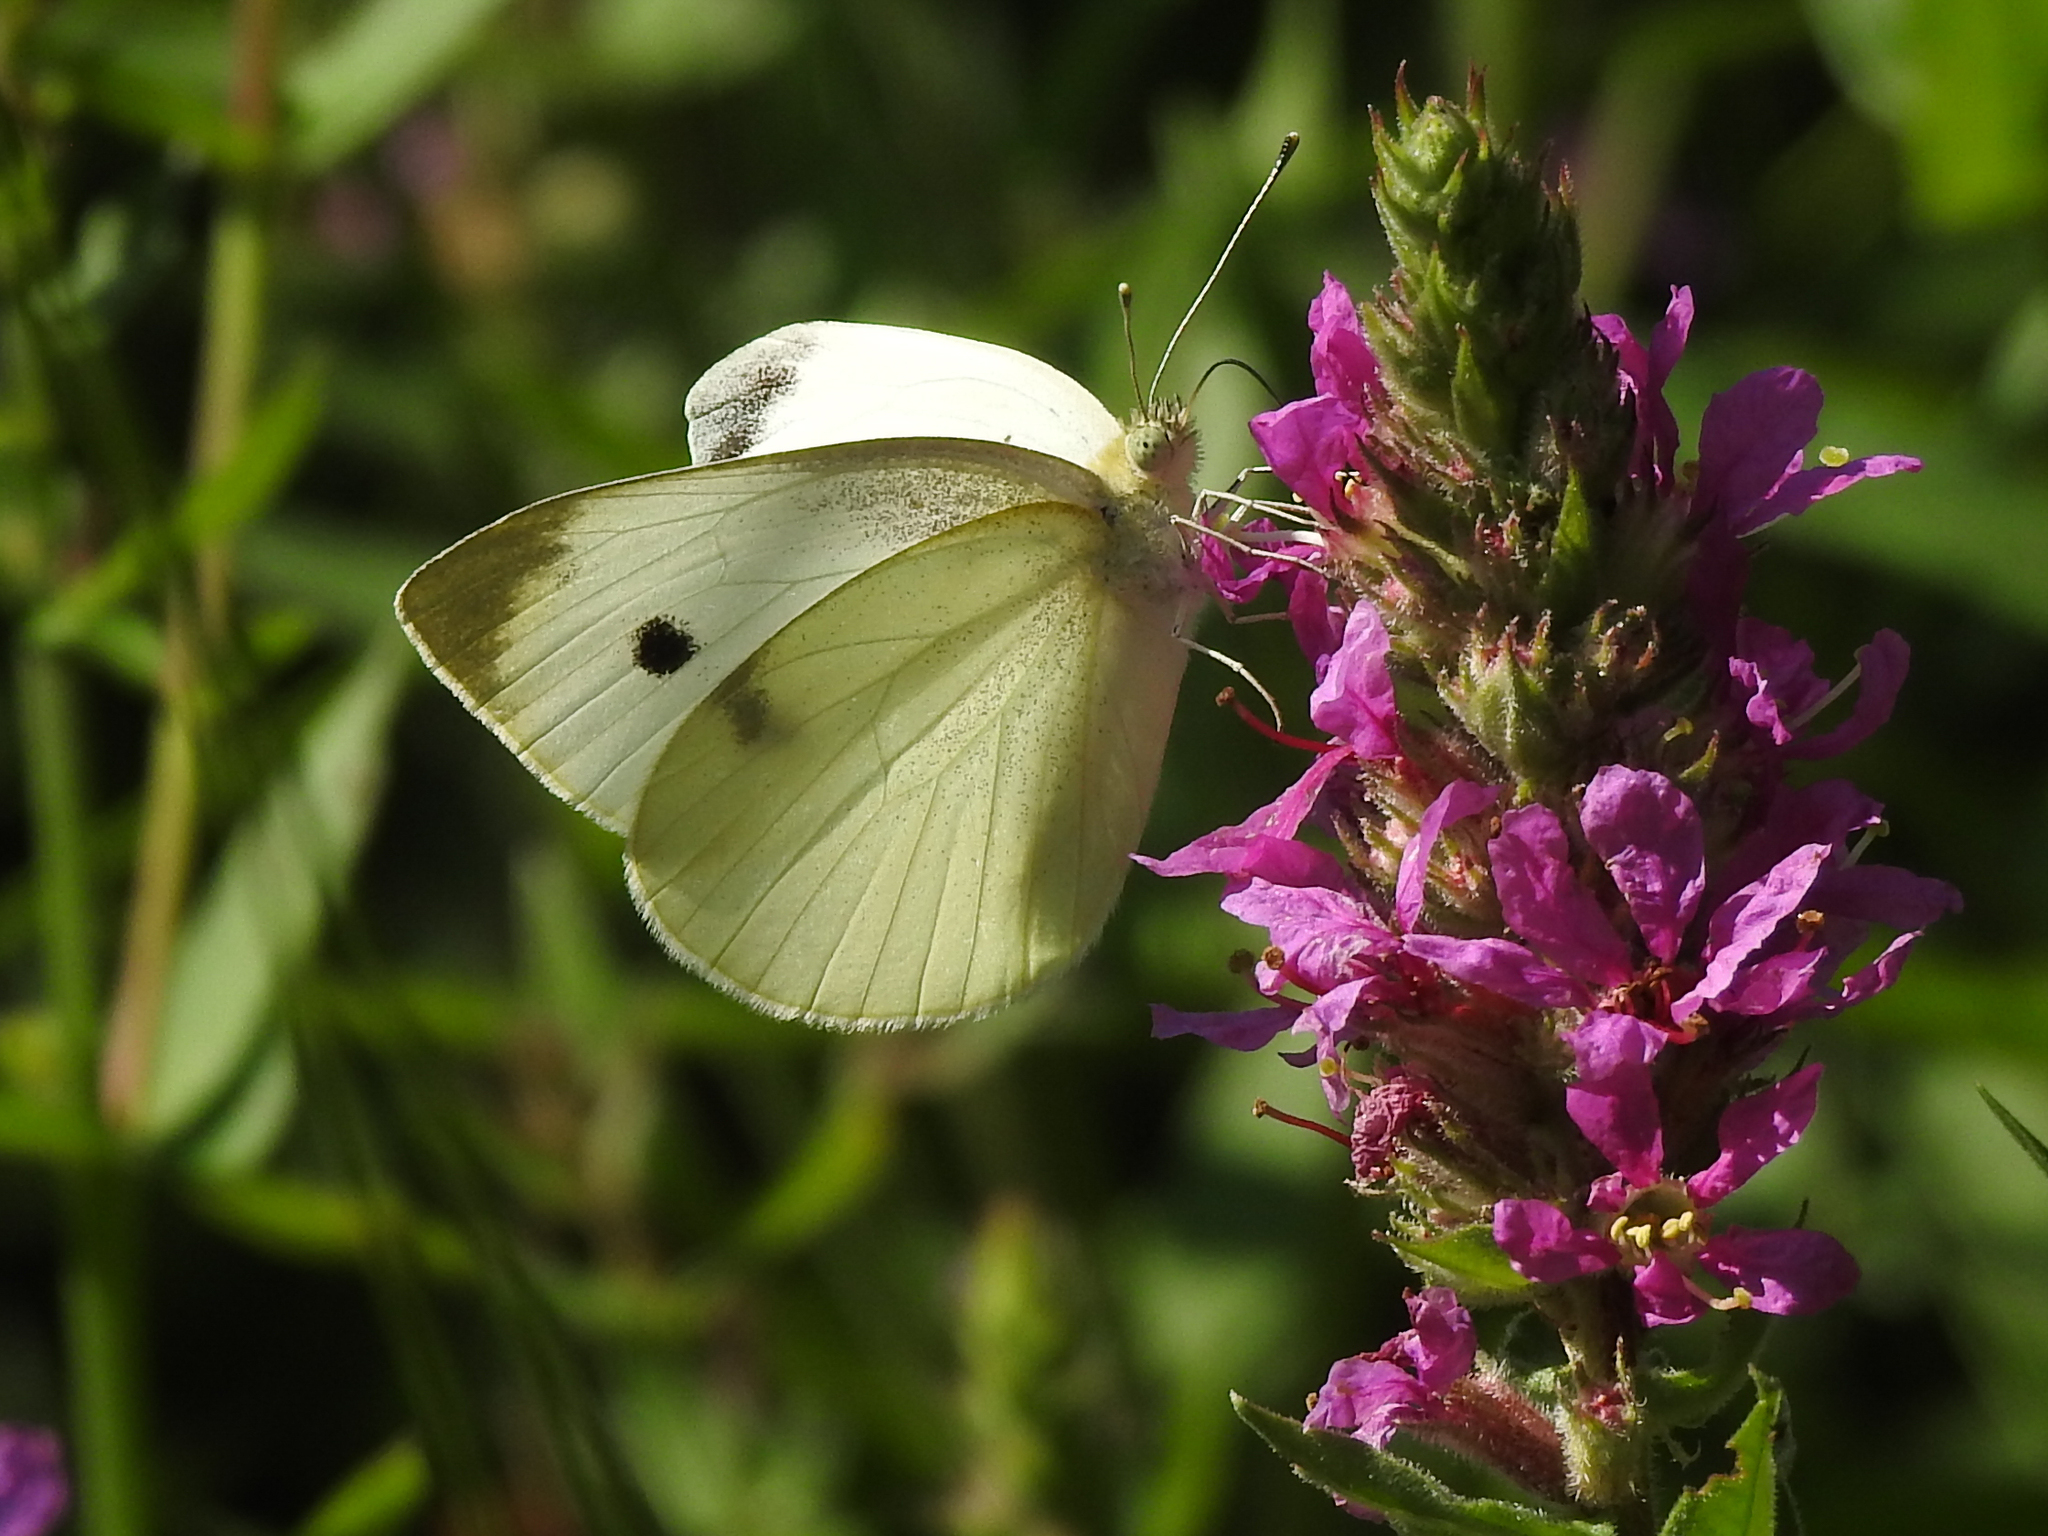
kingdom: Animalia
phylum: Arthropoda
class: Insecta
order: Lepidoptera
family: Pieridae
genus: Pieris
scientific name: Pieris rapae
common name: Small white
